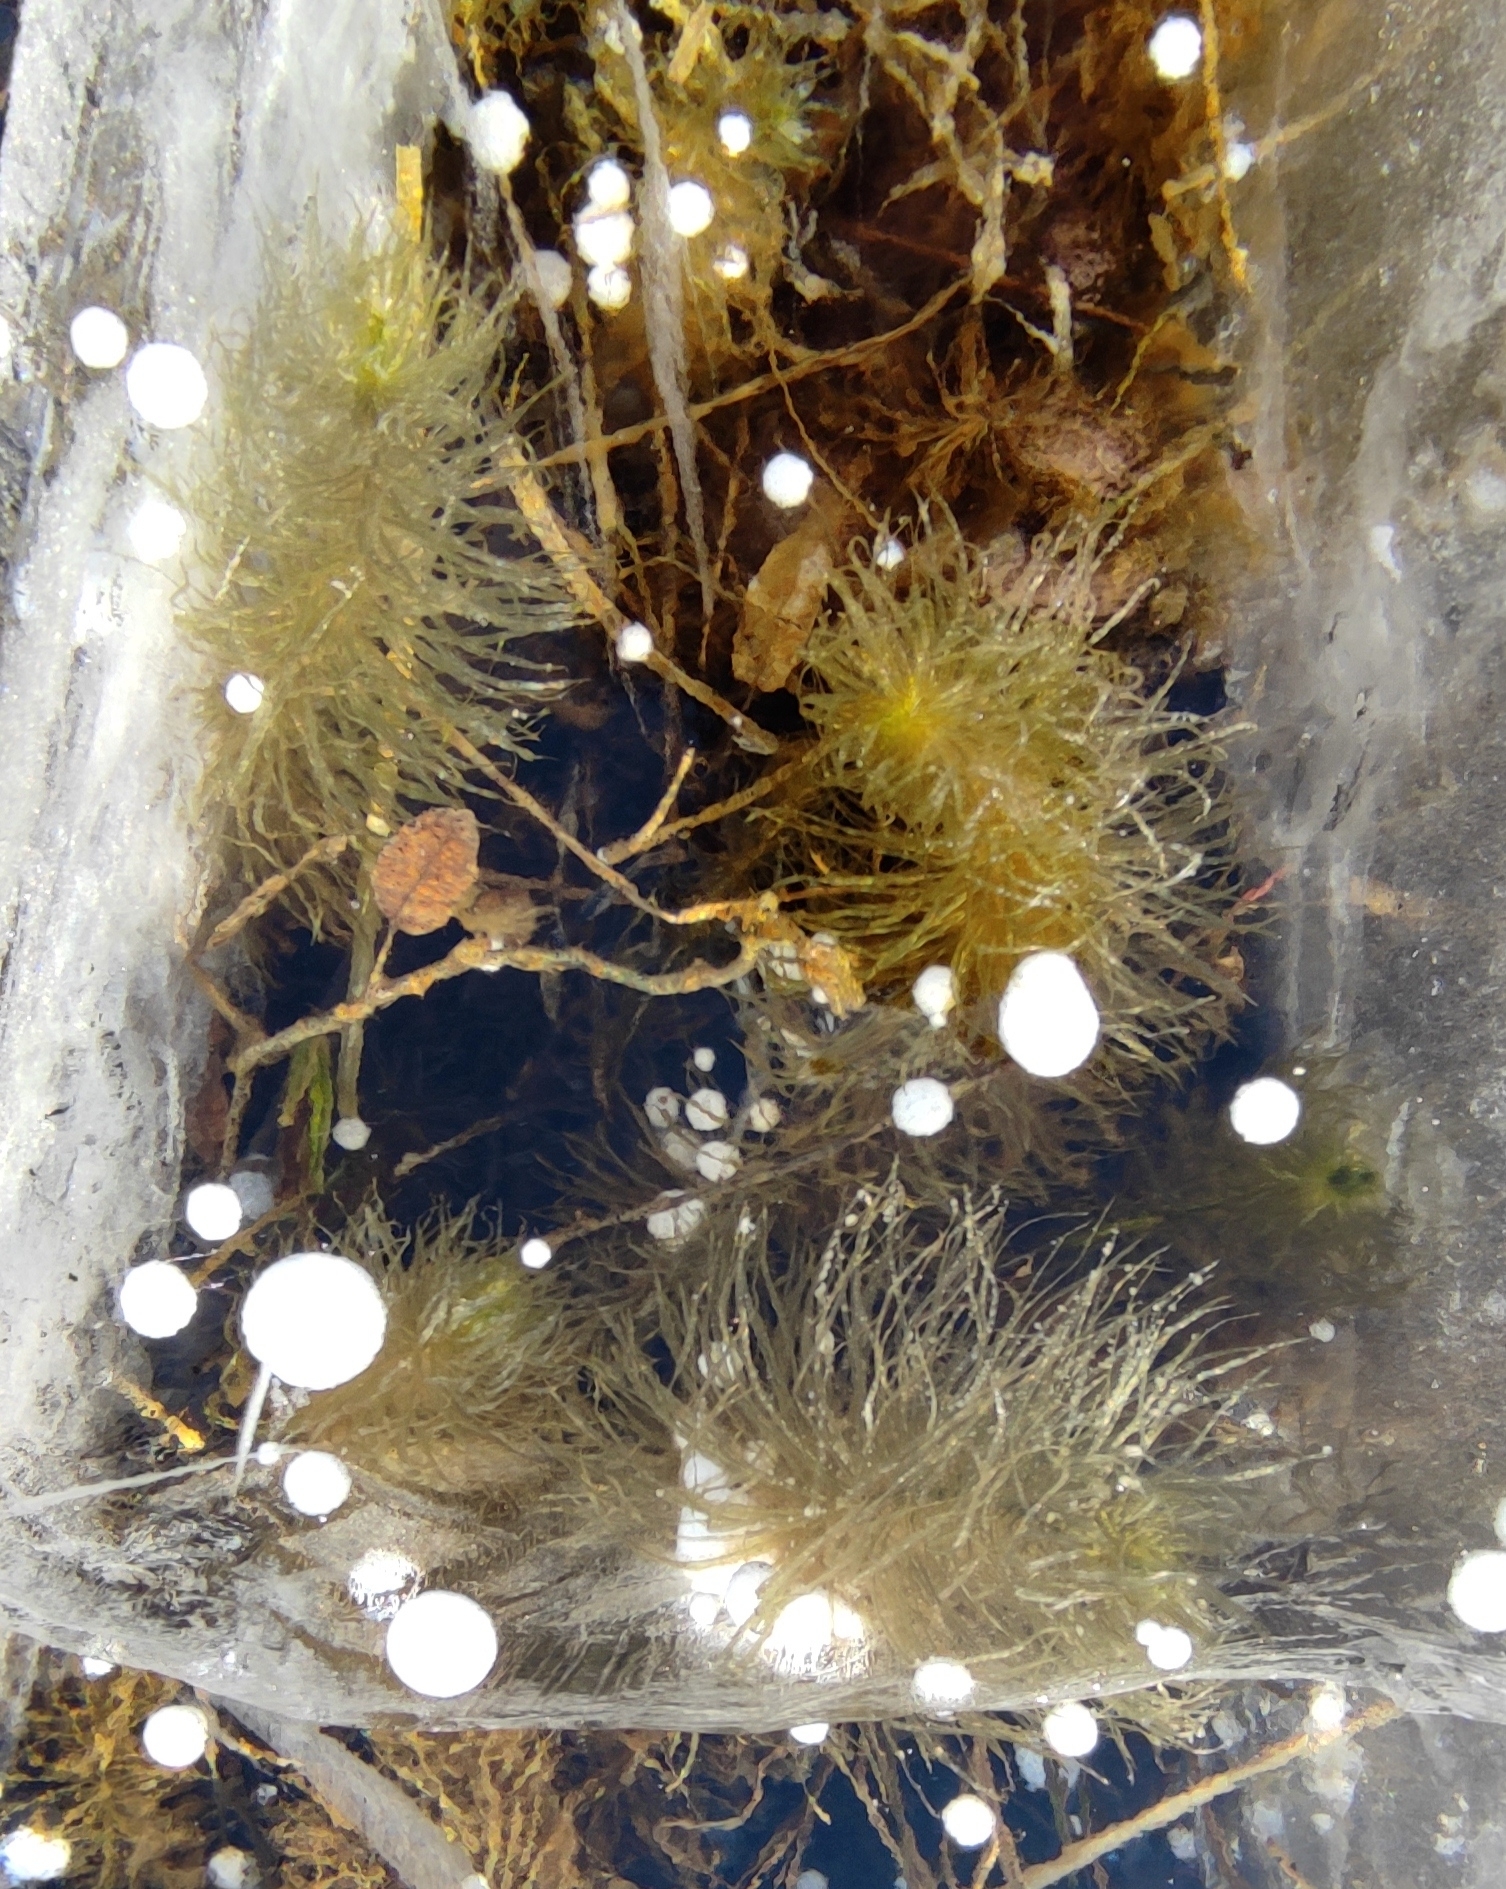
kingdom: Plantae
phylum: Tracheophyta
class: Magnoliopsida
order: Lamiales
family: Plantaginaceae
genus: Hippuris
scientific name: Hippuris vulgaris
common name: Mare's-tail
